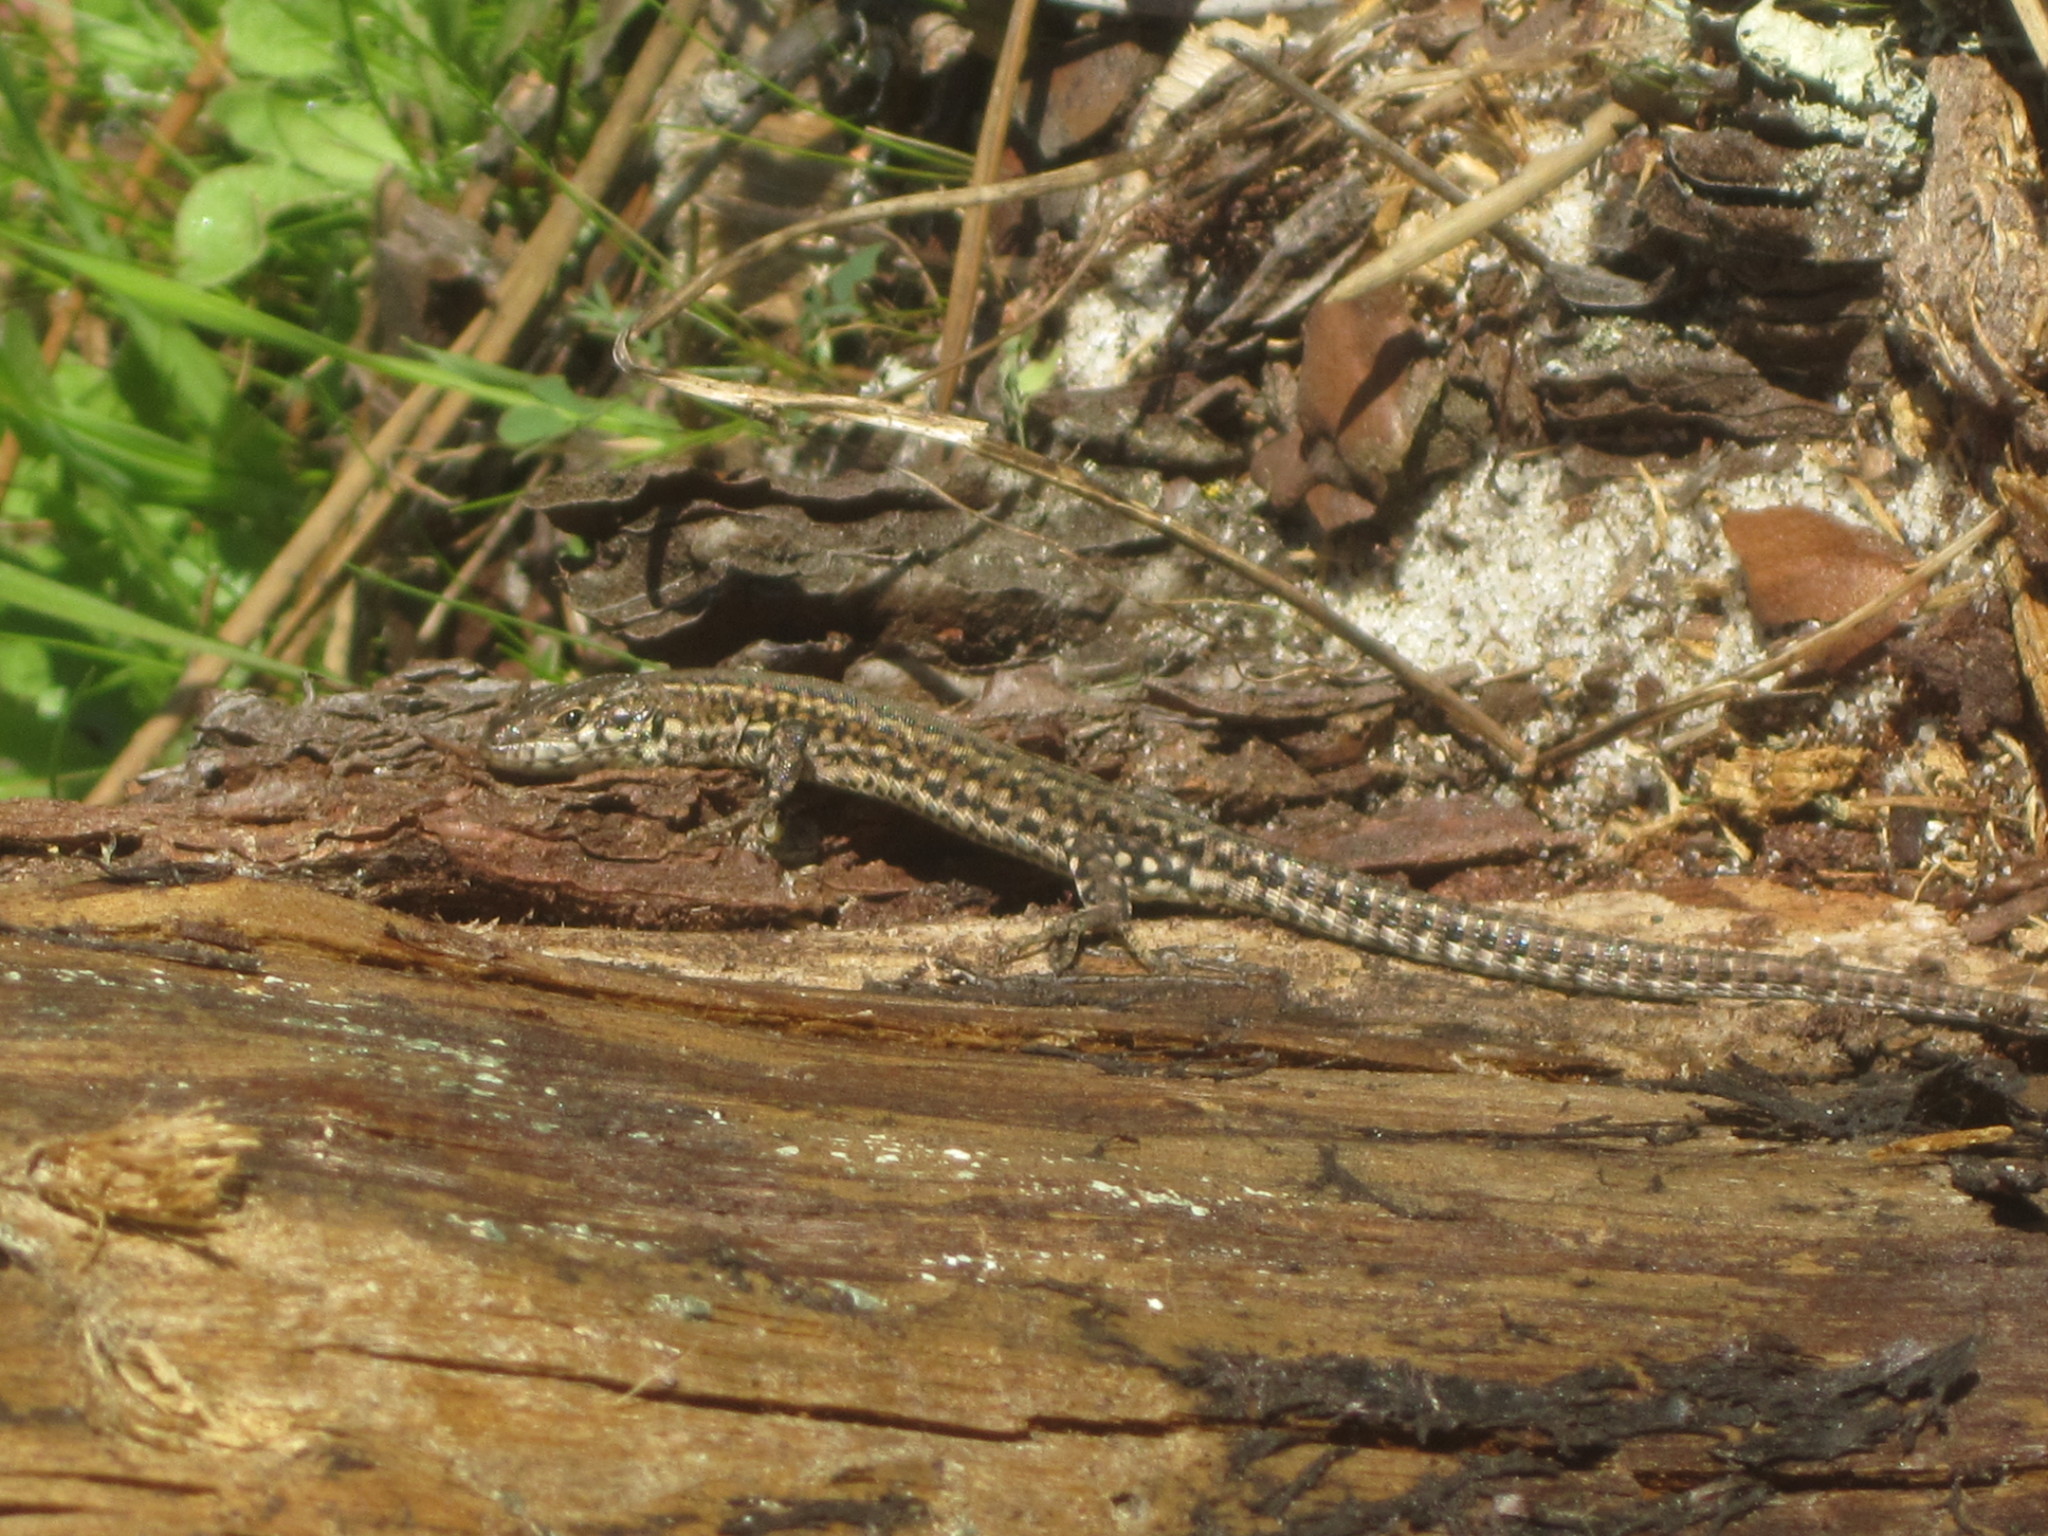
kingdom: Animalia
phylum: Chordata
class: Squamata
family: Lacertidae
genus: Podarcis
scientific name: Podarcis carbonelli
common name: Carbonelli's wall lizard
